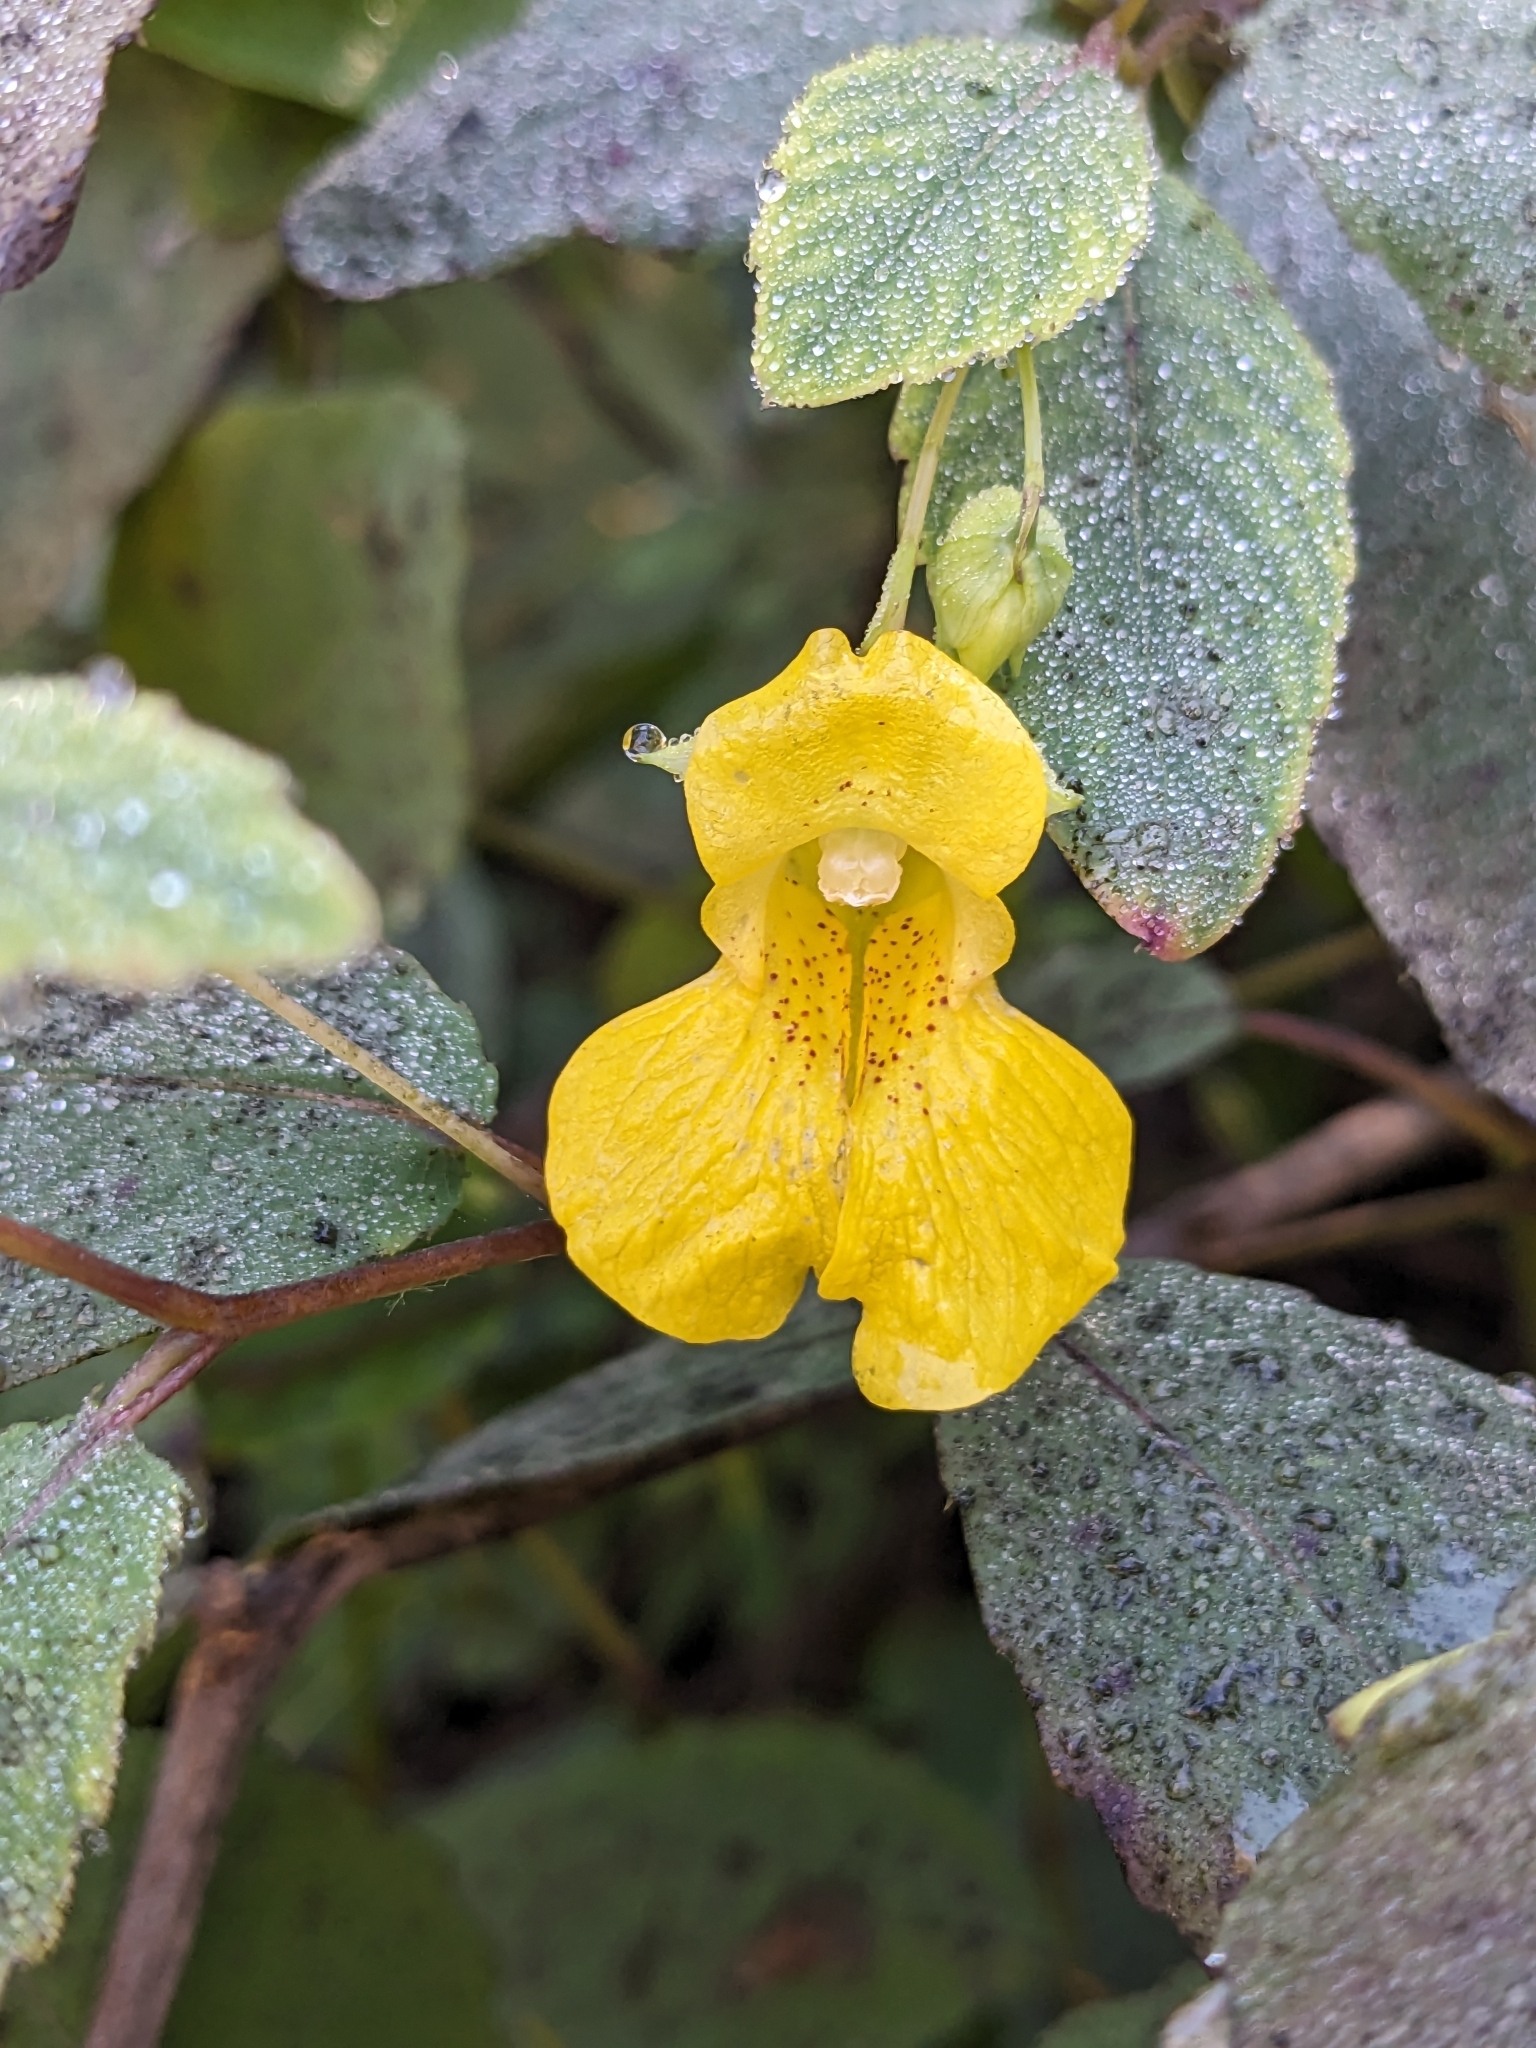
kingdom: Plantae
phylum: Tracheophyta
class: Magnoliopsida
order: Ericales
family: Balsaminaceae
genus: Impatiens
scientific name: Impatiens pallida
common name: Pale snapweed
